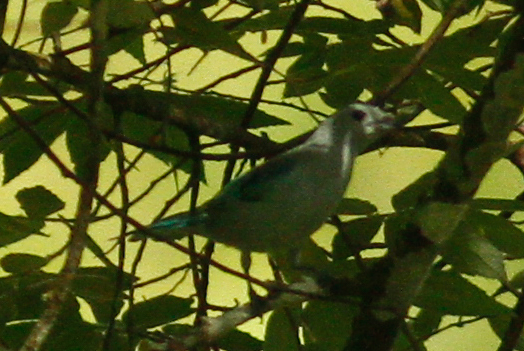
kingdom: Animalia
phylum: Chordata
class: Aves
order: Passeriformes
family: Thraupidae
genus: Thraupis
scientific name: Thraupis episcopus
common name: Blue-grey tanager
